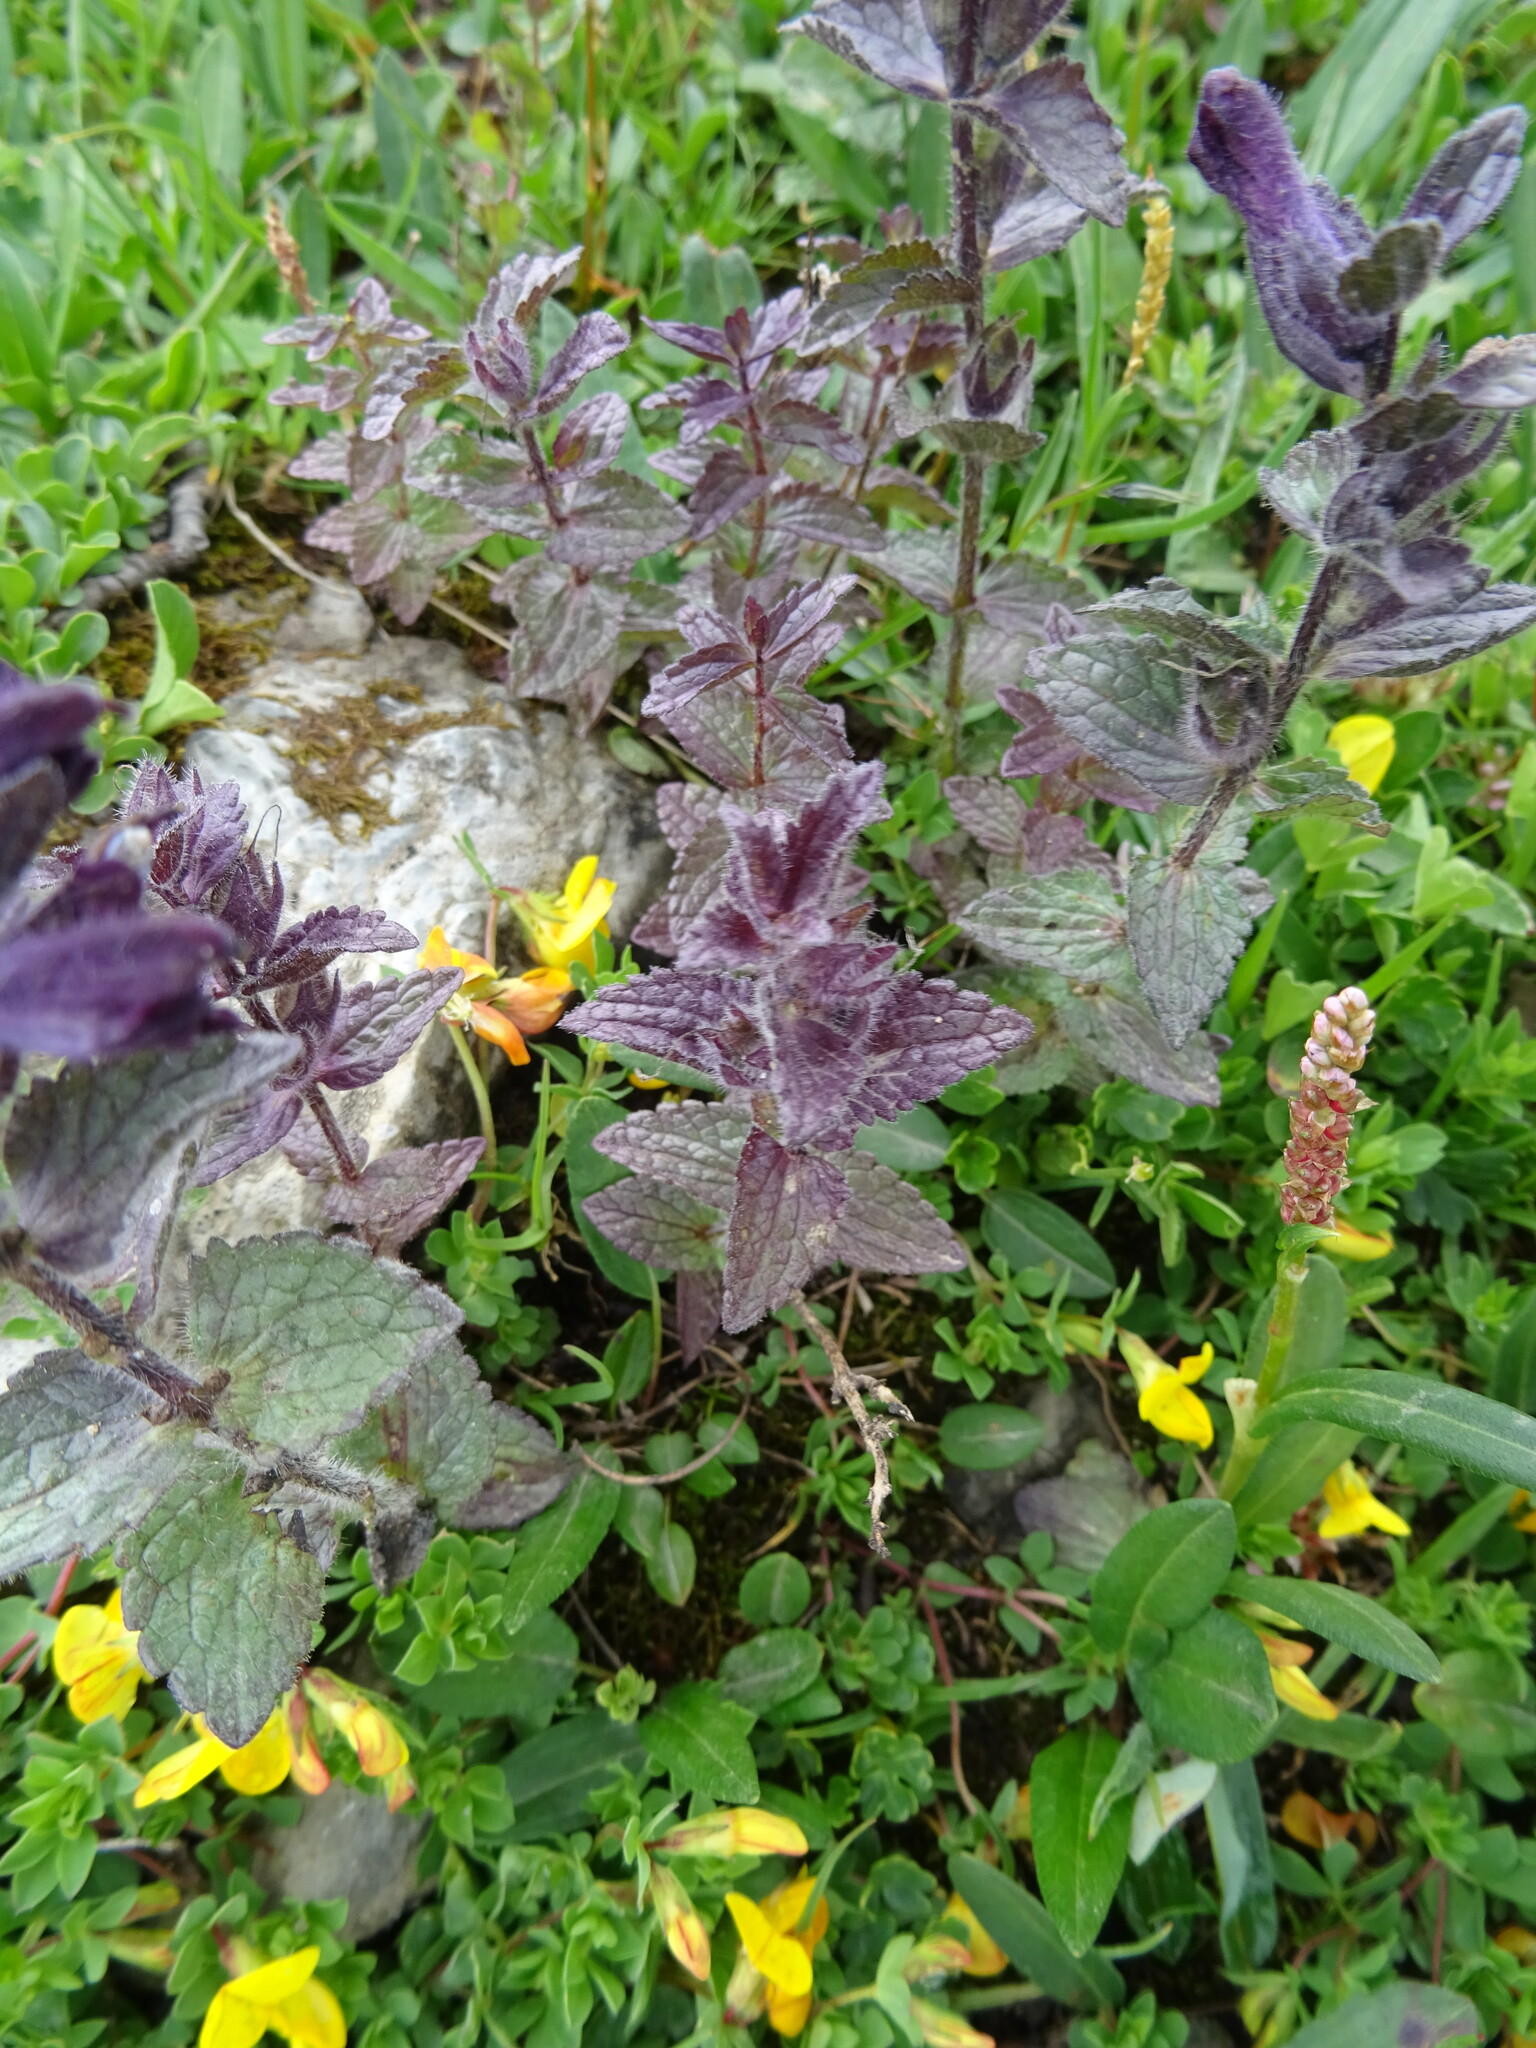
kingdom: Plantae
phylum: Tracheophyta
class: Magnoliopsida
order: Lamiales
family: Orobanchaceae
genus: Bartsia
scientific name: Bartsia alpina
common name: Alpine bartsia
